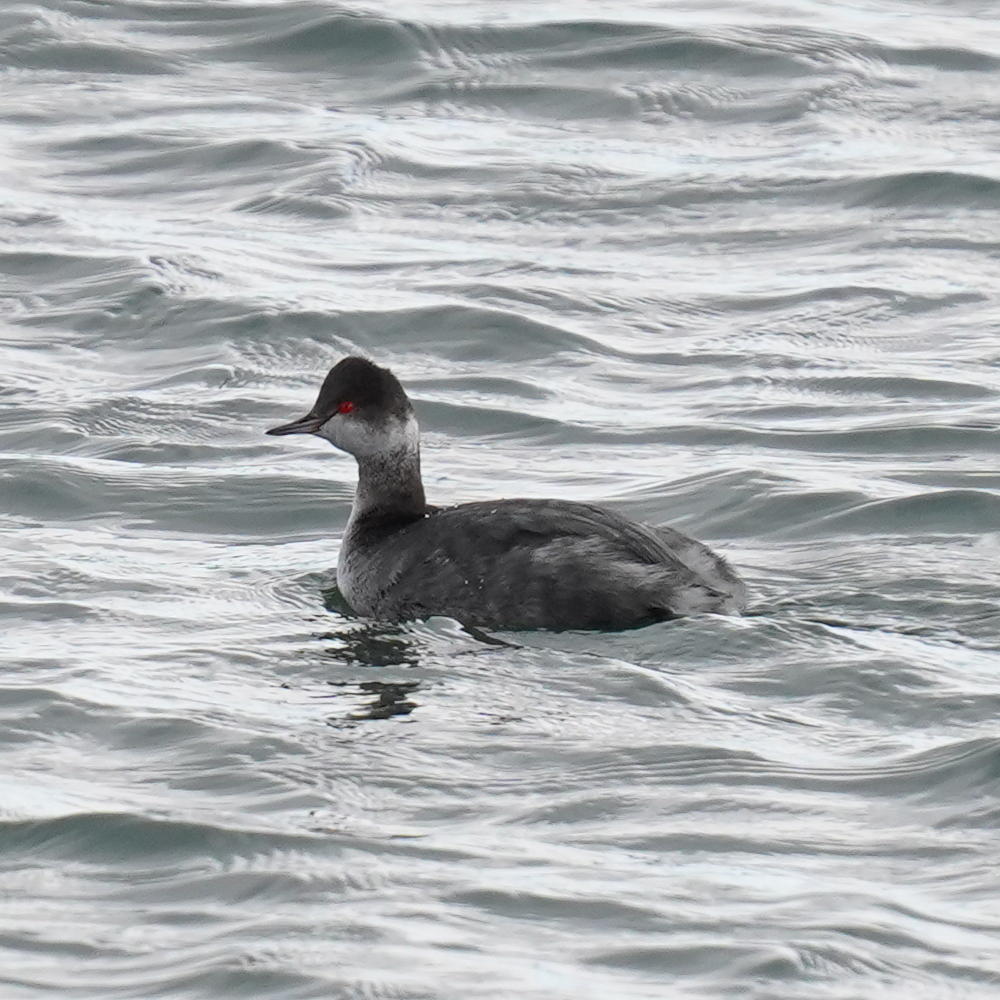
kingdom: Animalia
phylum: Chordata
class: Aves
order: Podicipediformes
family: Podicipedidae
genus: Podiceps
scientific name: Podiceps nigricollis
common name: Black-necked grebe
